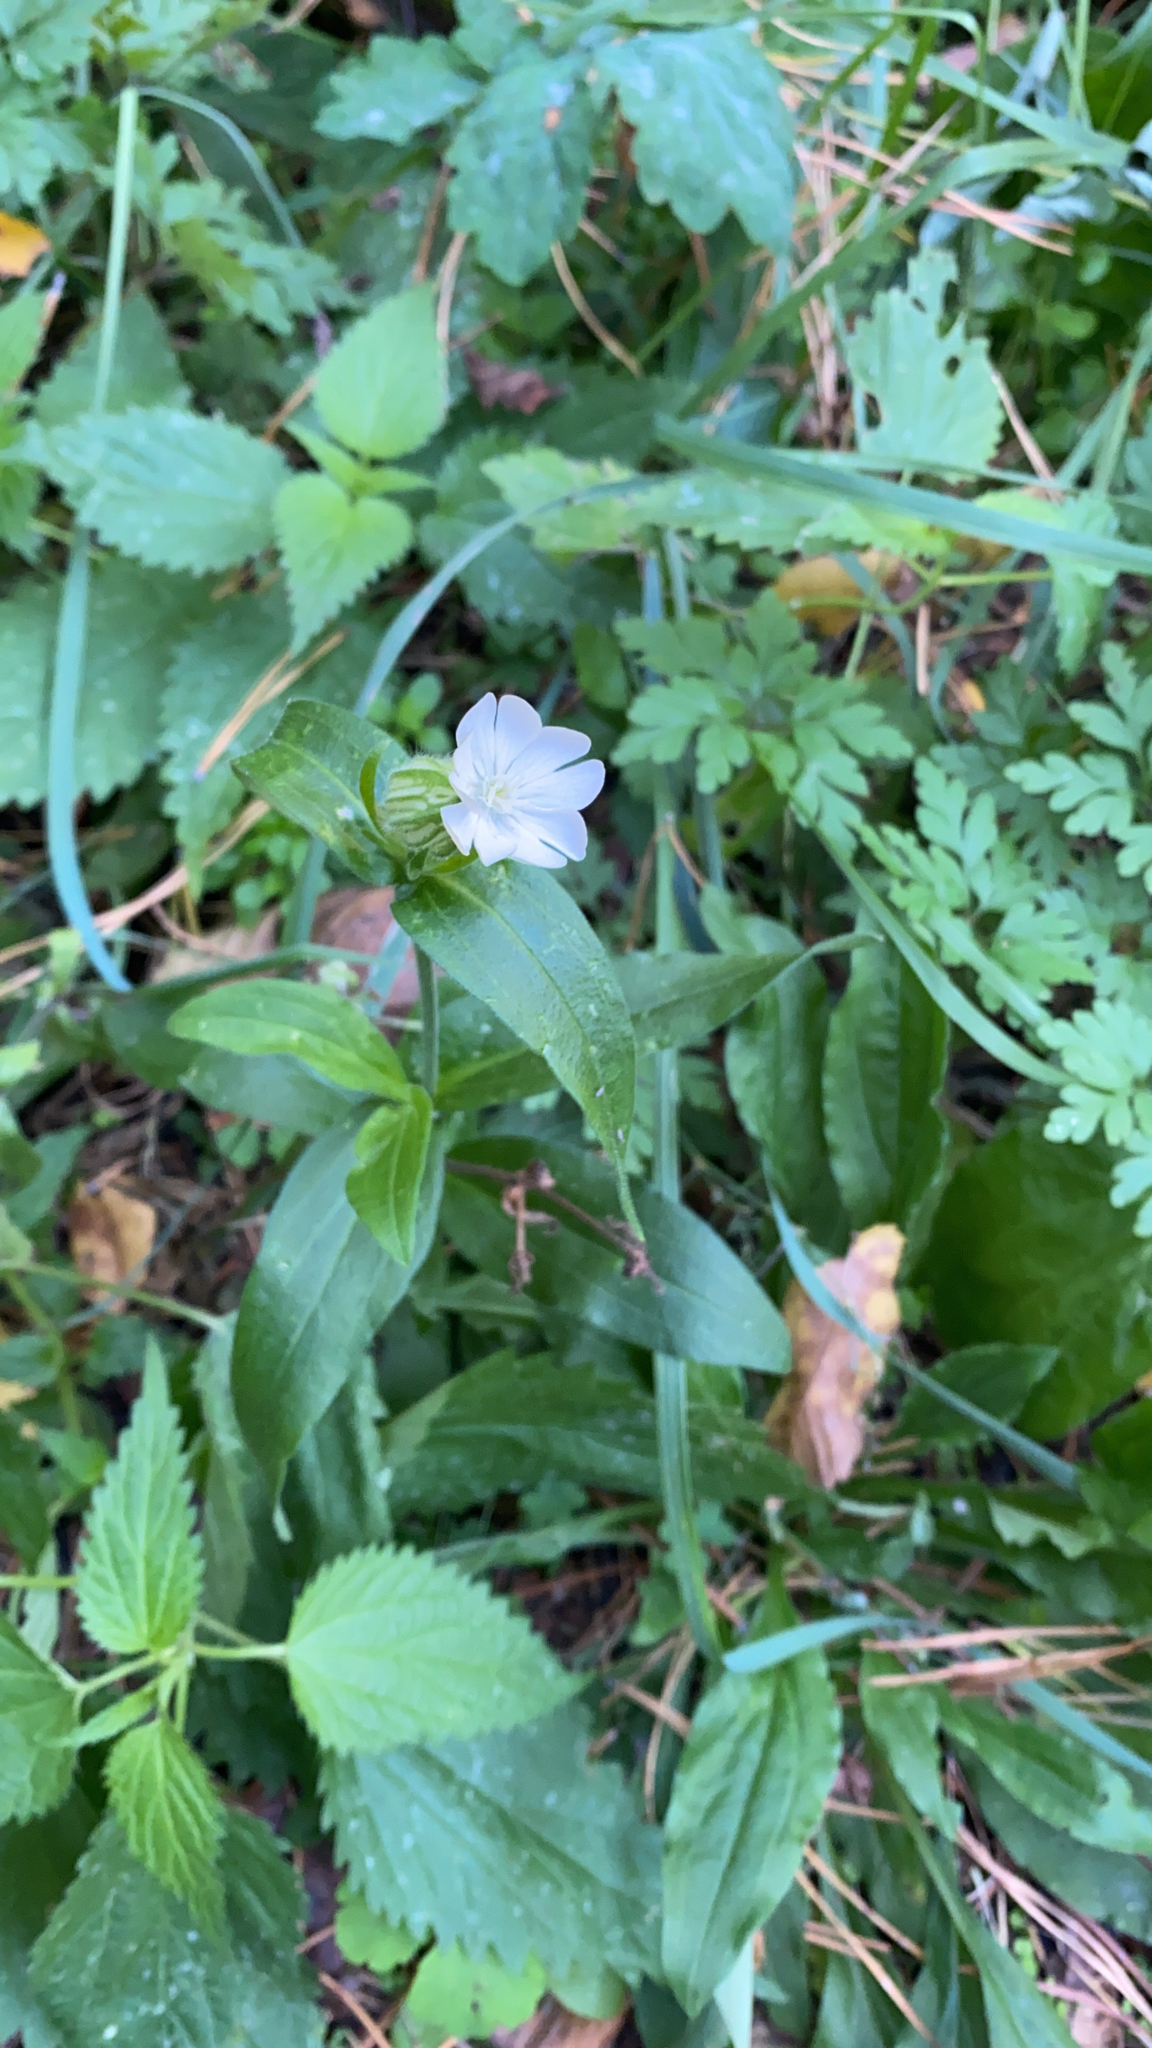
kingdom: Plantae
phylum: Tracheophyta
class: Magnoliopsida
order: Caryophyllales
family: Caryophyllaceae
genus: Silene
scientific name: Silene latifolia
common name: White campion
